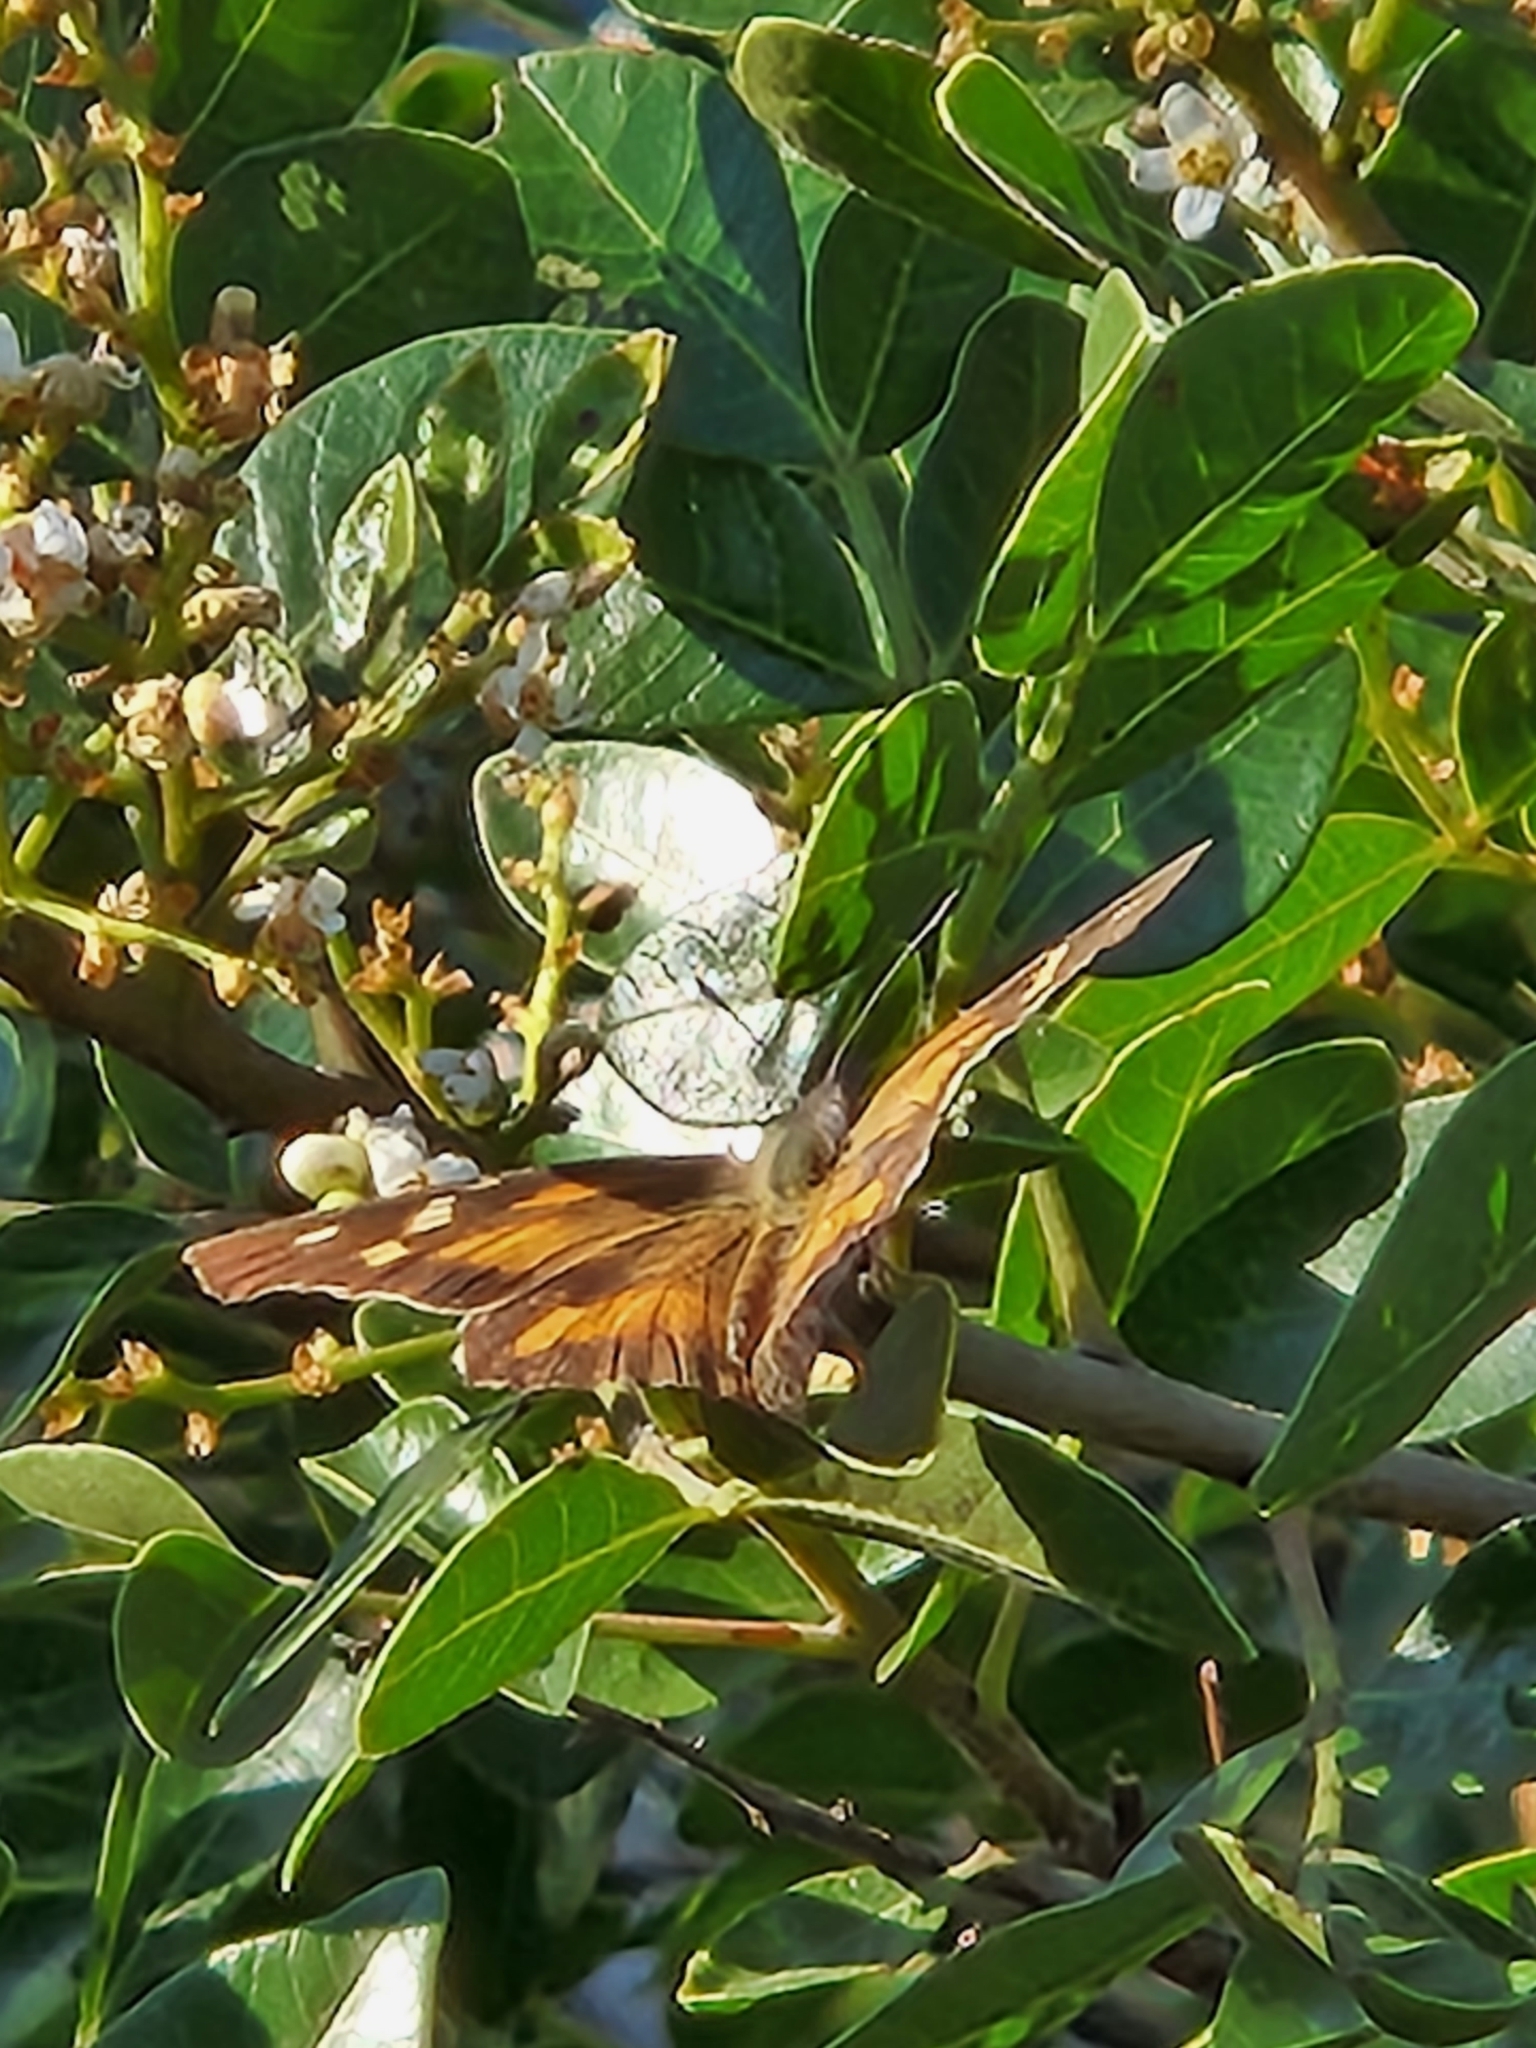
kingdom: Animalia
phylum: Arthropoda
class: Insecta
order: Lepidoptera
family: Nymphalidae
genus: Libytheana
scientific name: Libytheana carinenta
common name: American snout
